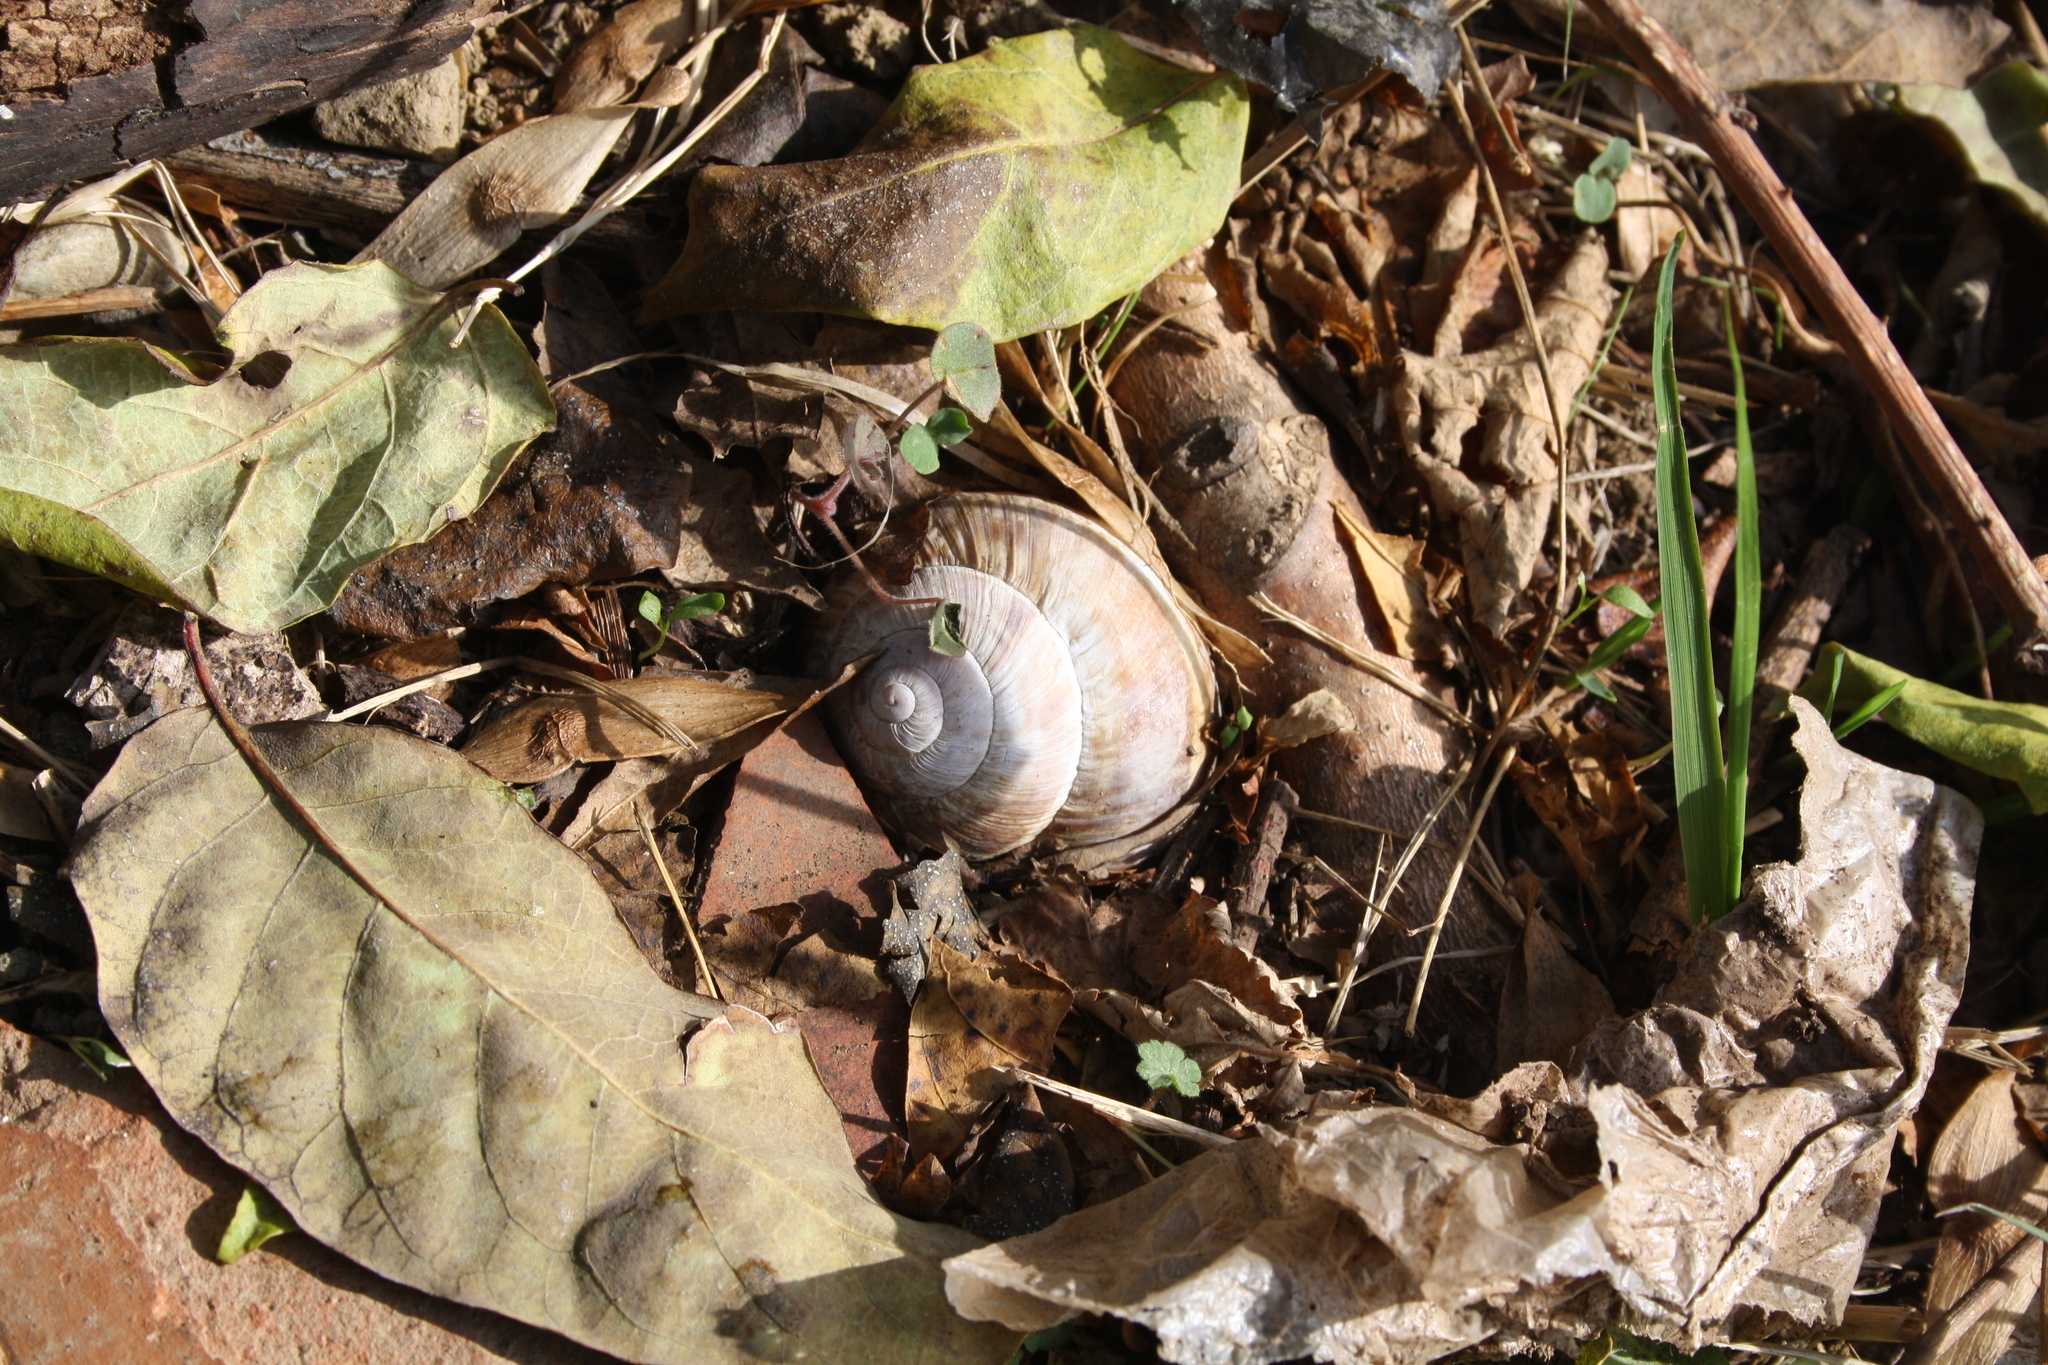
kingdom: Animalia
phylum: Mollusca
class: Gastropoda
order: Stylommatophora
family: Helicidae
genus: Helix
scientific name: Helix lucorum
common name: Turkish snail
